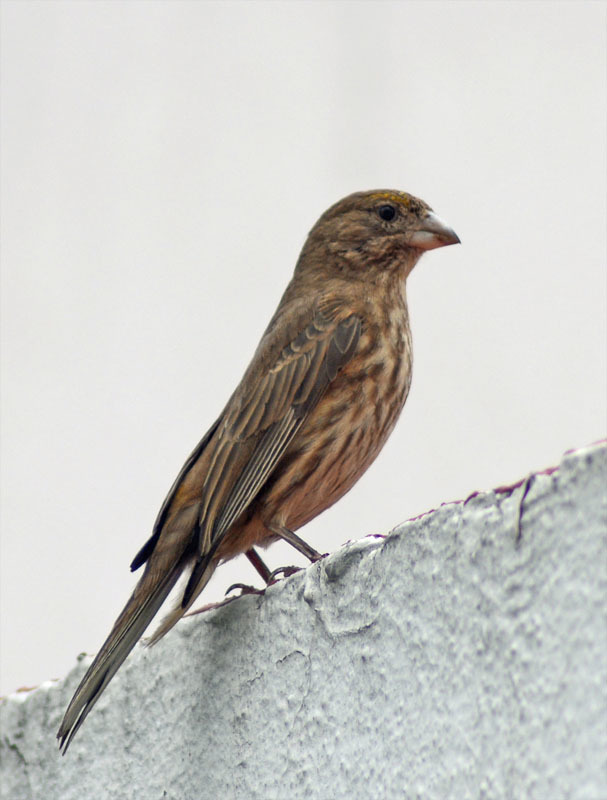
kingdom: Animalia
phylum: Chordata
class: Aves
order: Passeriformes
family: Fringillidae
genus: Haemorhous
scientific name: Haemorhous mexicanus
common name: House finch
